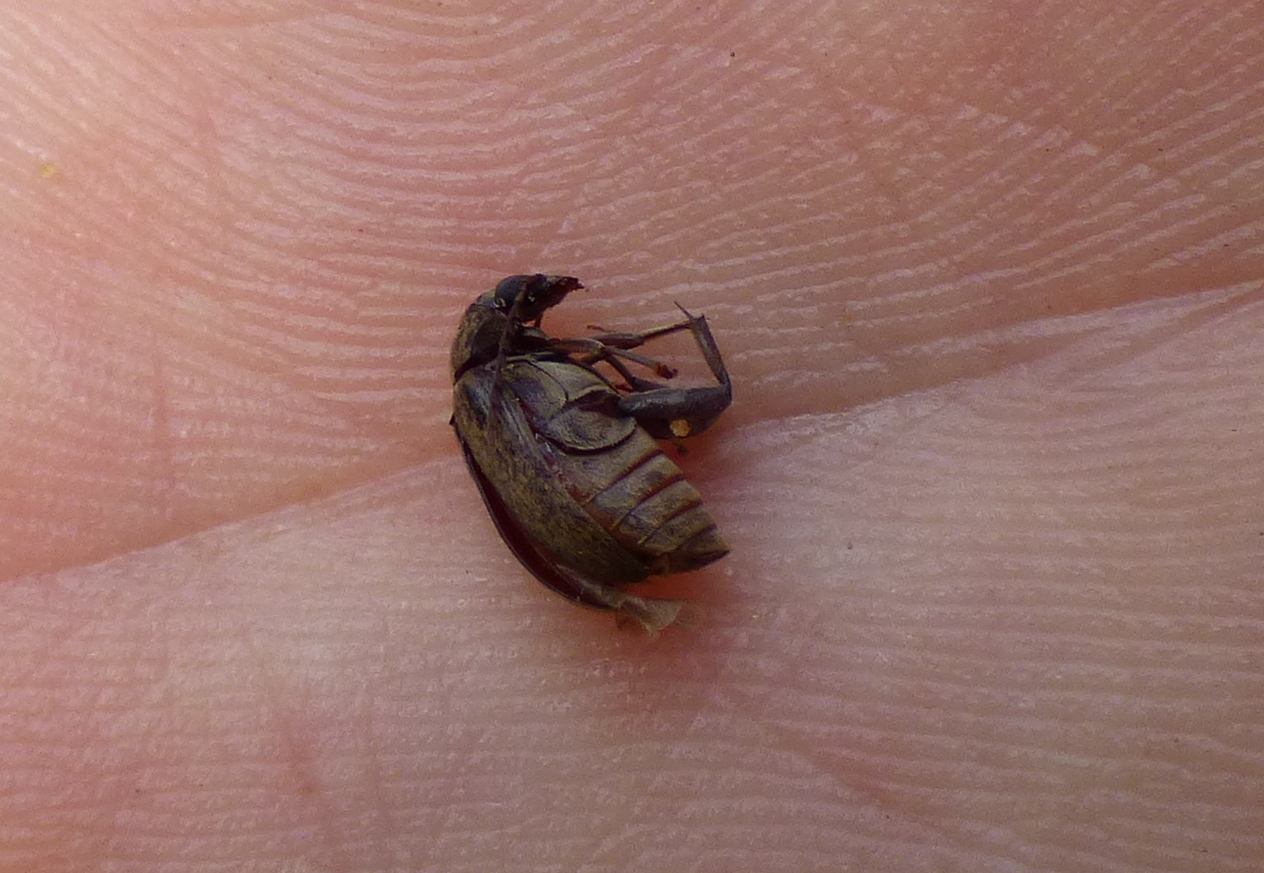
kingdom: Animalia
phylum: Arthropoda
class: Insecta
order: Coleoptera
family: Chrysomelidae
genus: Amblycerus
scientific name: Amblycerus dispar
